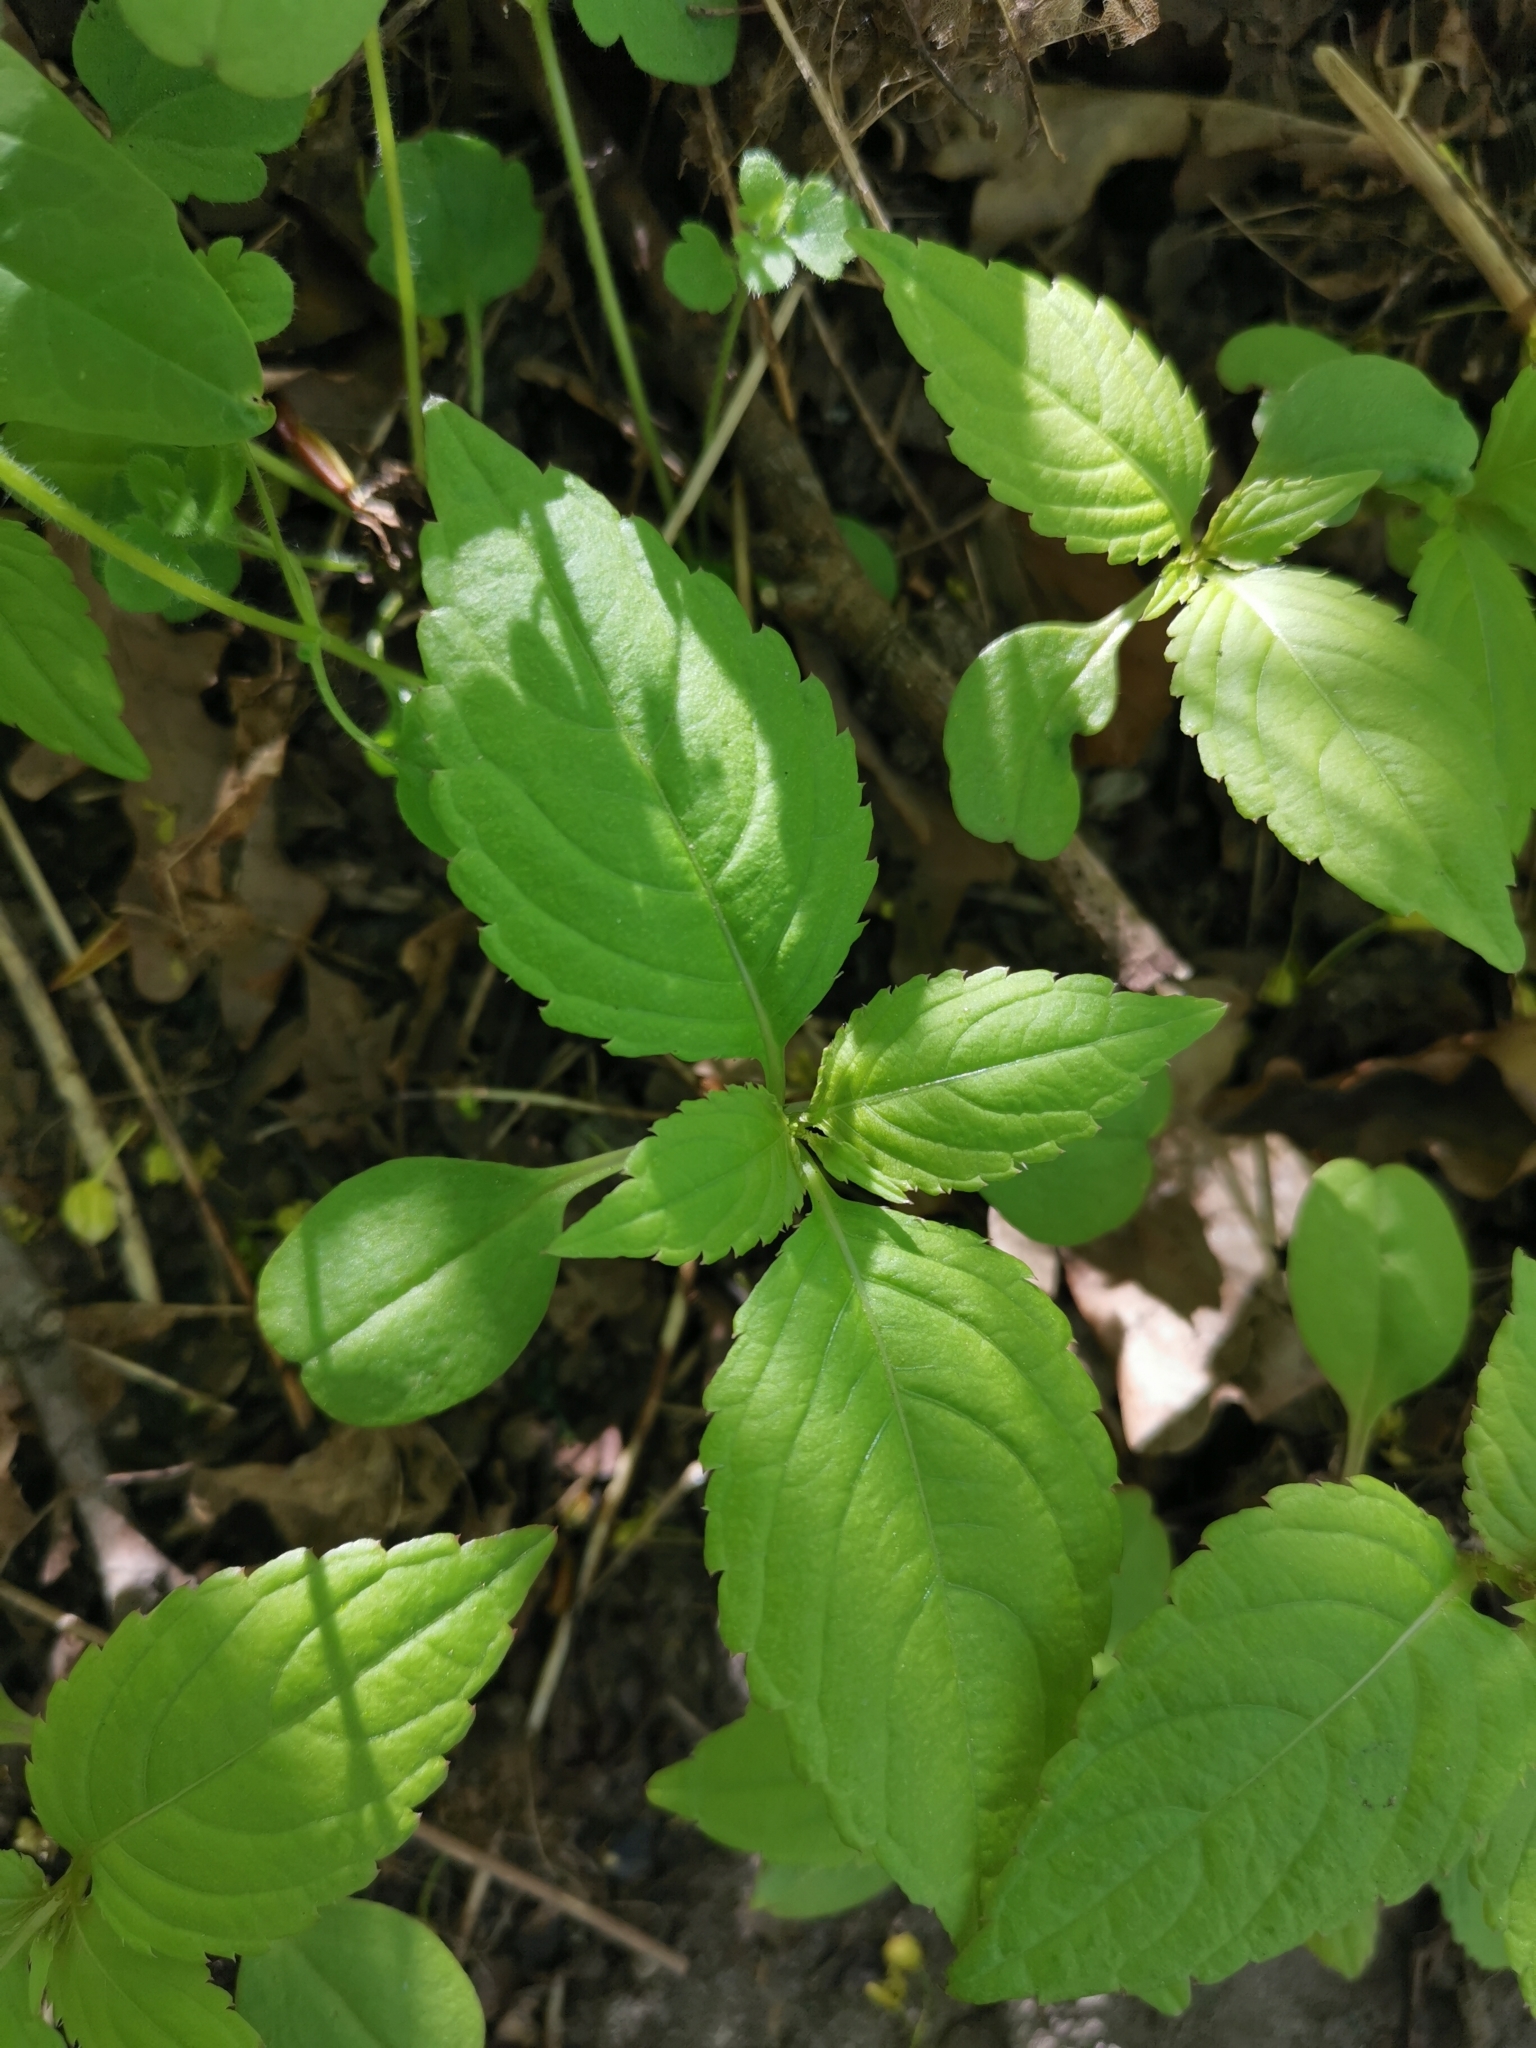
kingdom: Plantae
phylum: Tracheophyta
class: Magnoliopsida
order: Ericales
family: Balsaminaceae
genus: Impatiens
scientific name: Impatiens parviflora
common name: Small balsam
